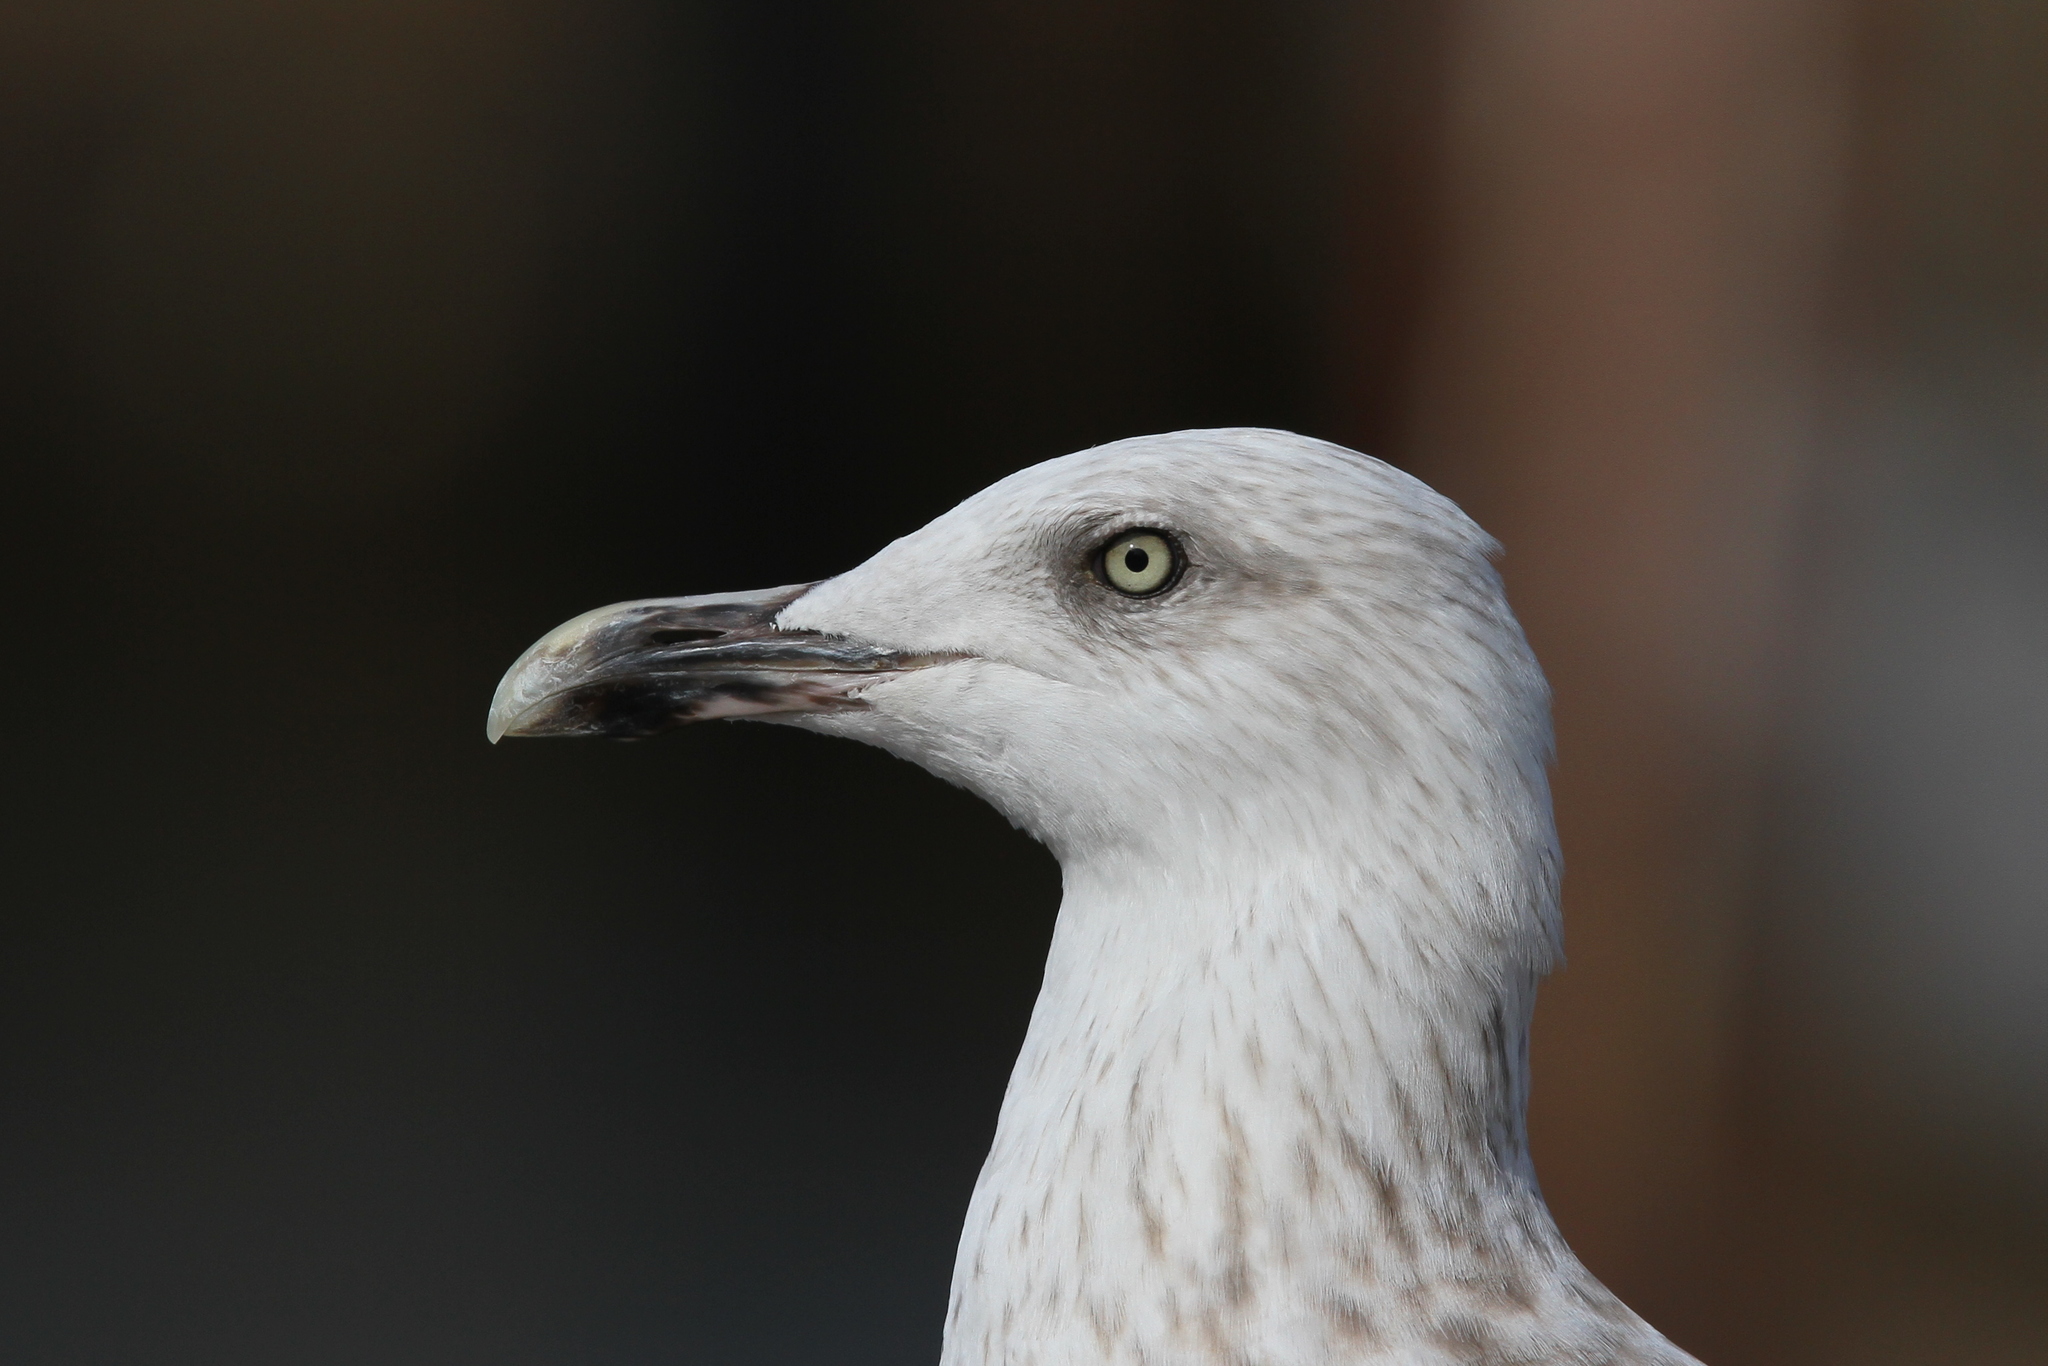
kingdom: Animalia
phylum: Chordata
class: Aves
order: Charadriiformes
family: Laridae
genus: Larus
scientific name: Larus argentatus
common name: Herring gull
